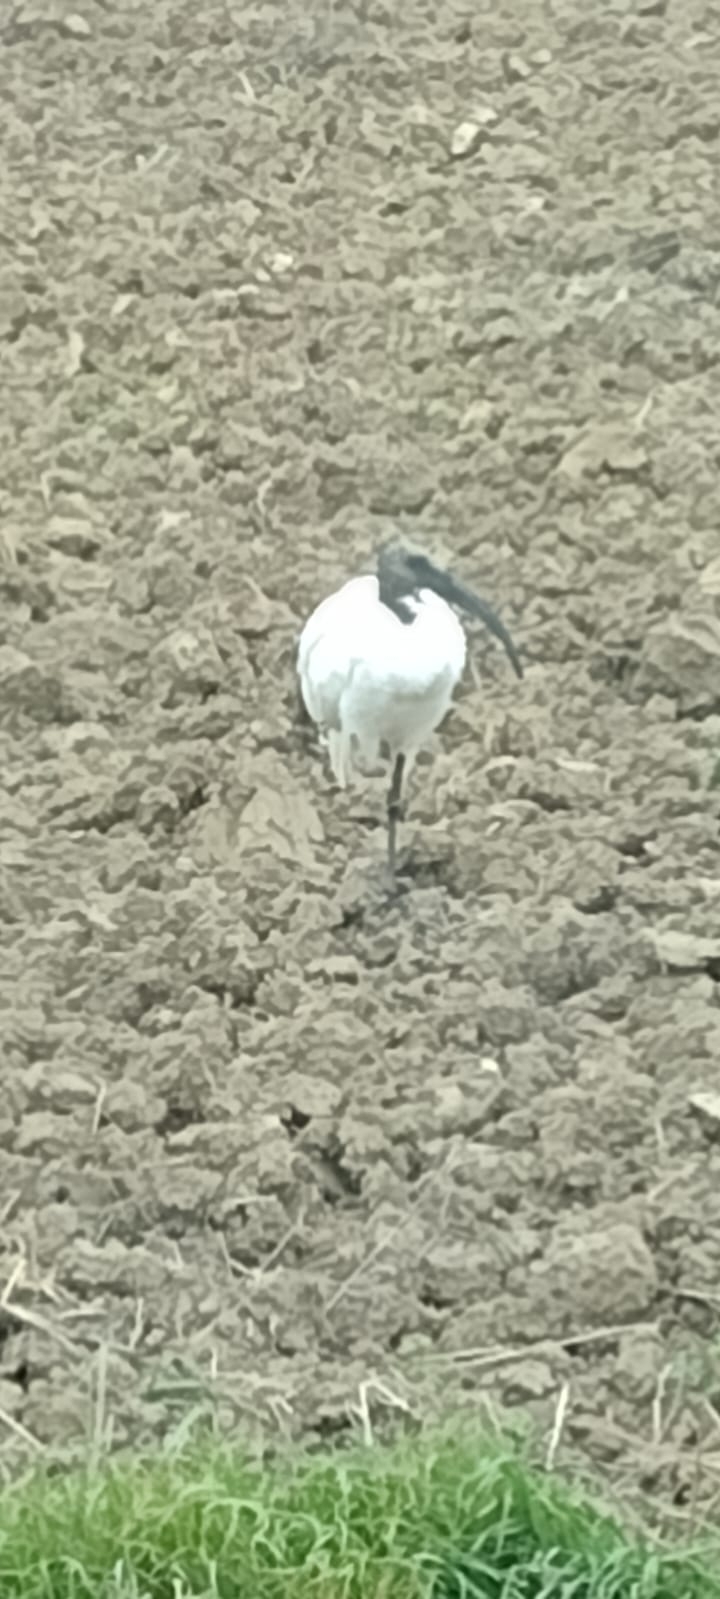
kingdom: Animalia
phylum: Chordata
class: Aves
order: Pelecaniformes
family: Threskiornithidae
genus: Threskiornis
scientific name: Threskiornis aethiopicus
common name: Sacred ibis
